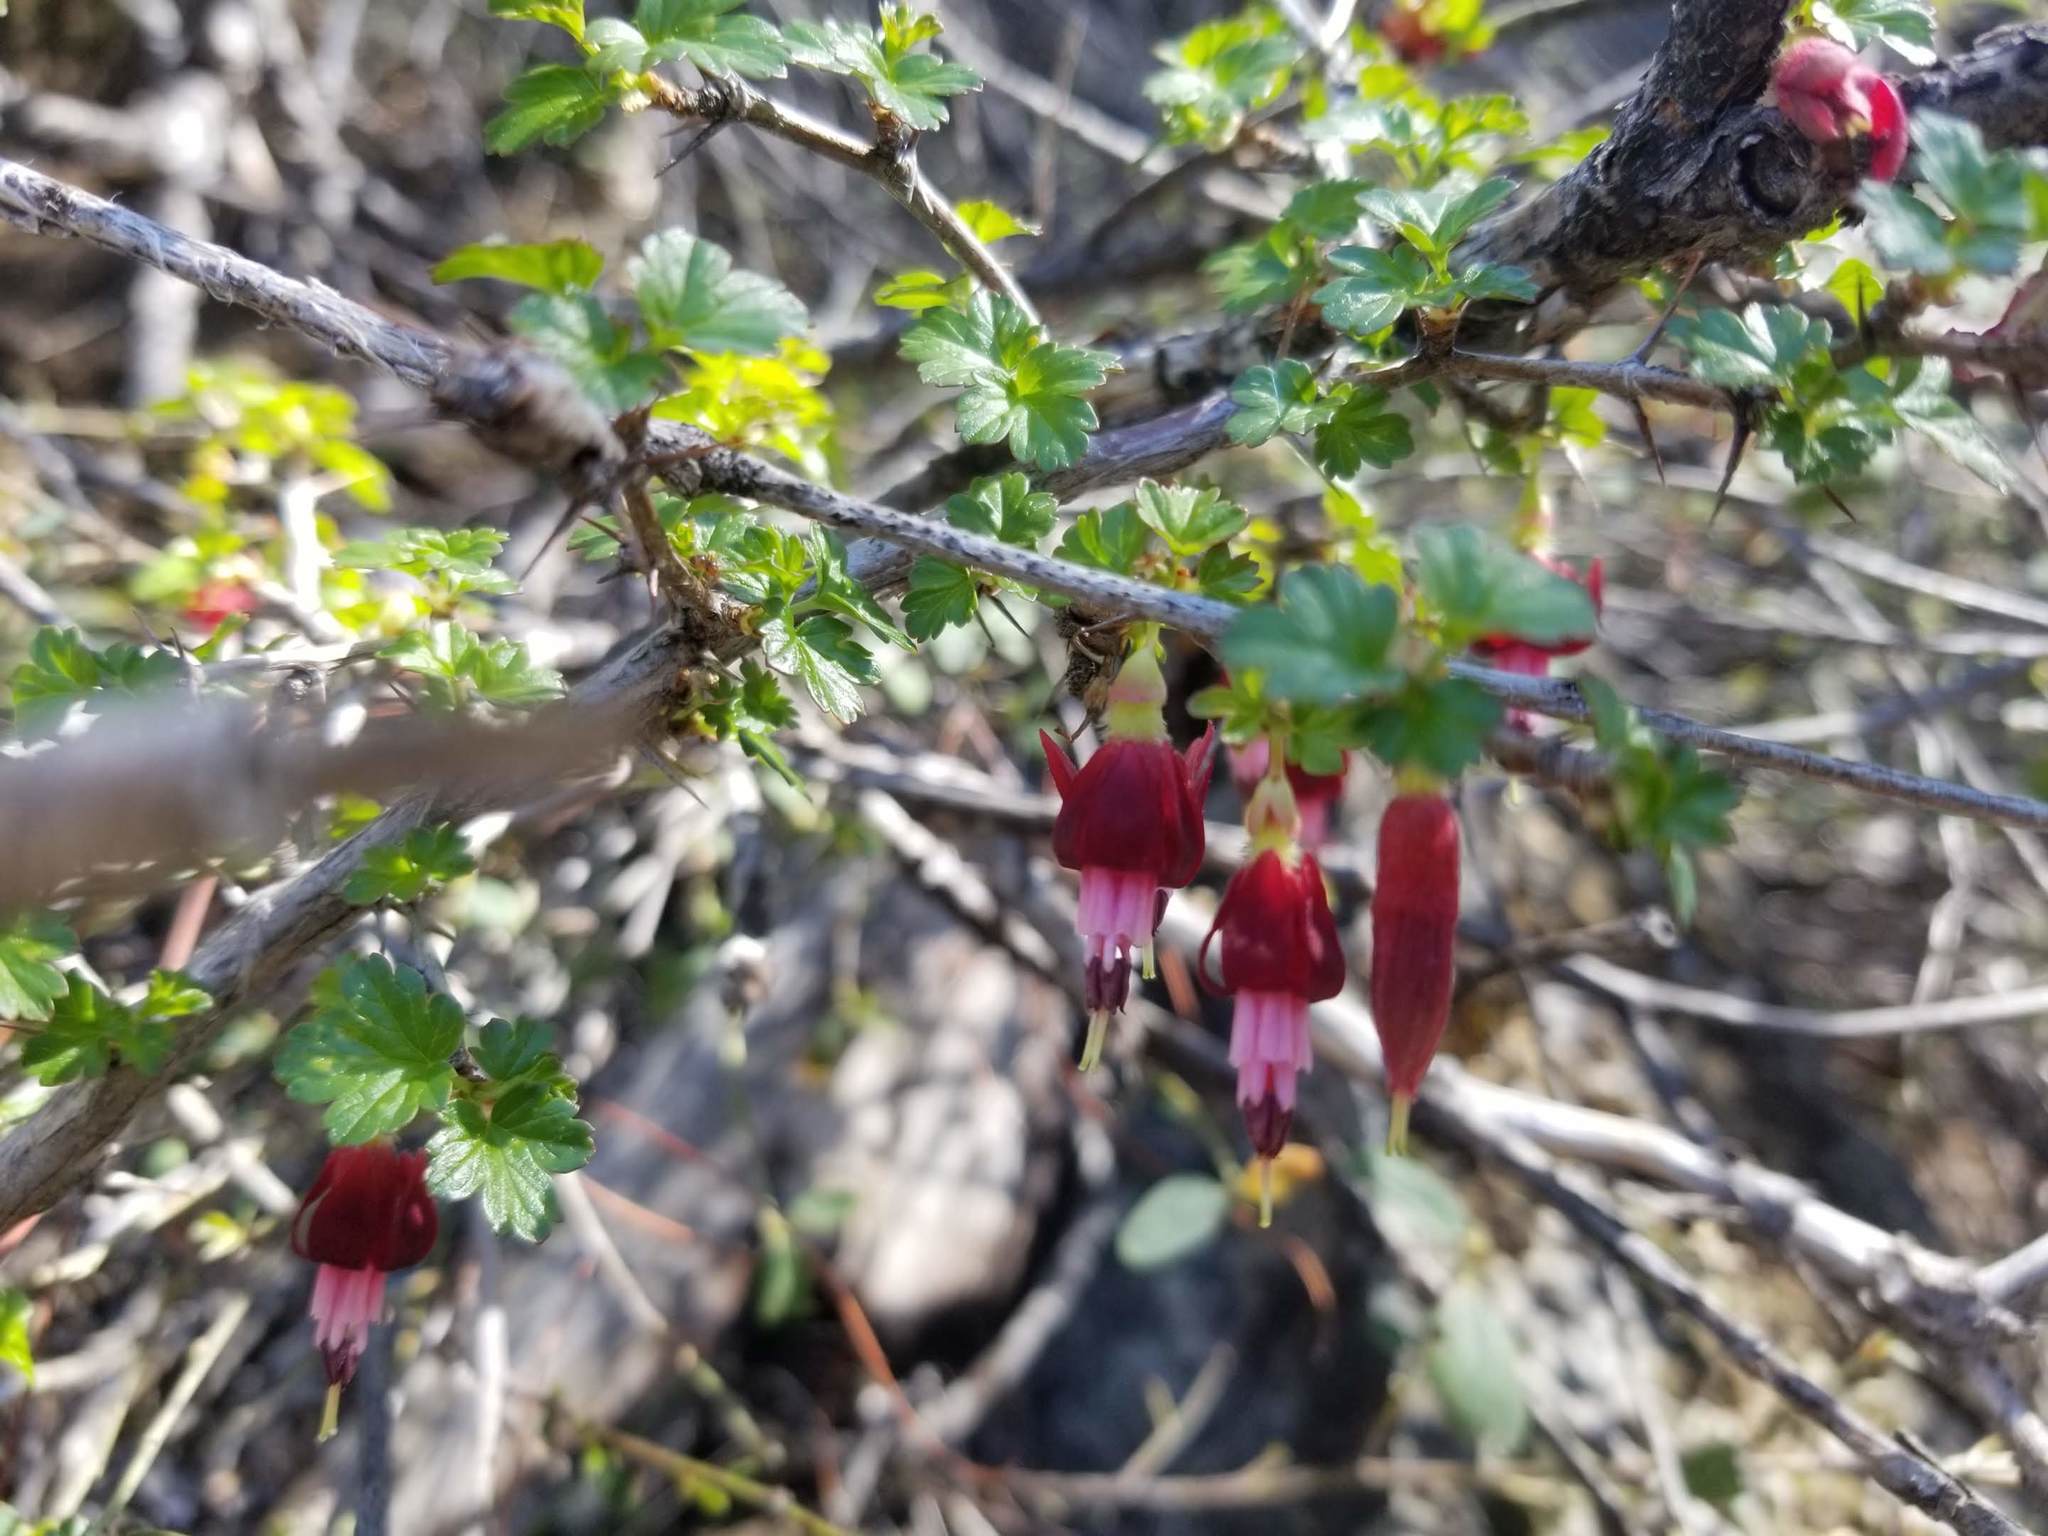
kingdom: Plantae
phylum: Tracheophyta
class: Magnoliopsida
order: Saxifragales
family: Grossulariaceae
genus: Ribes
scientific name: Ribes roezlii
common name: Sierra gooseberry
